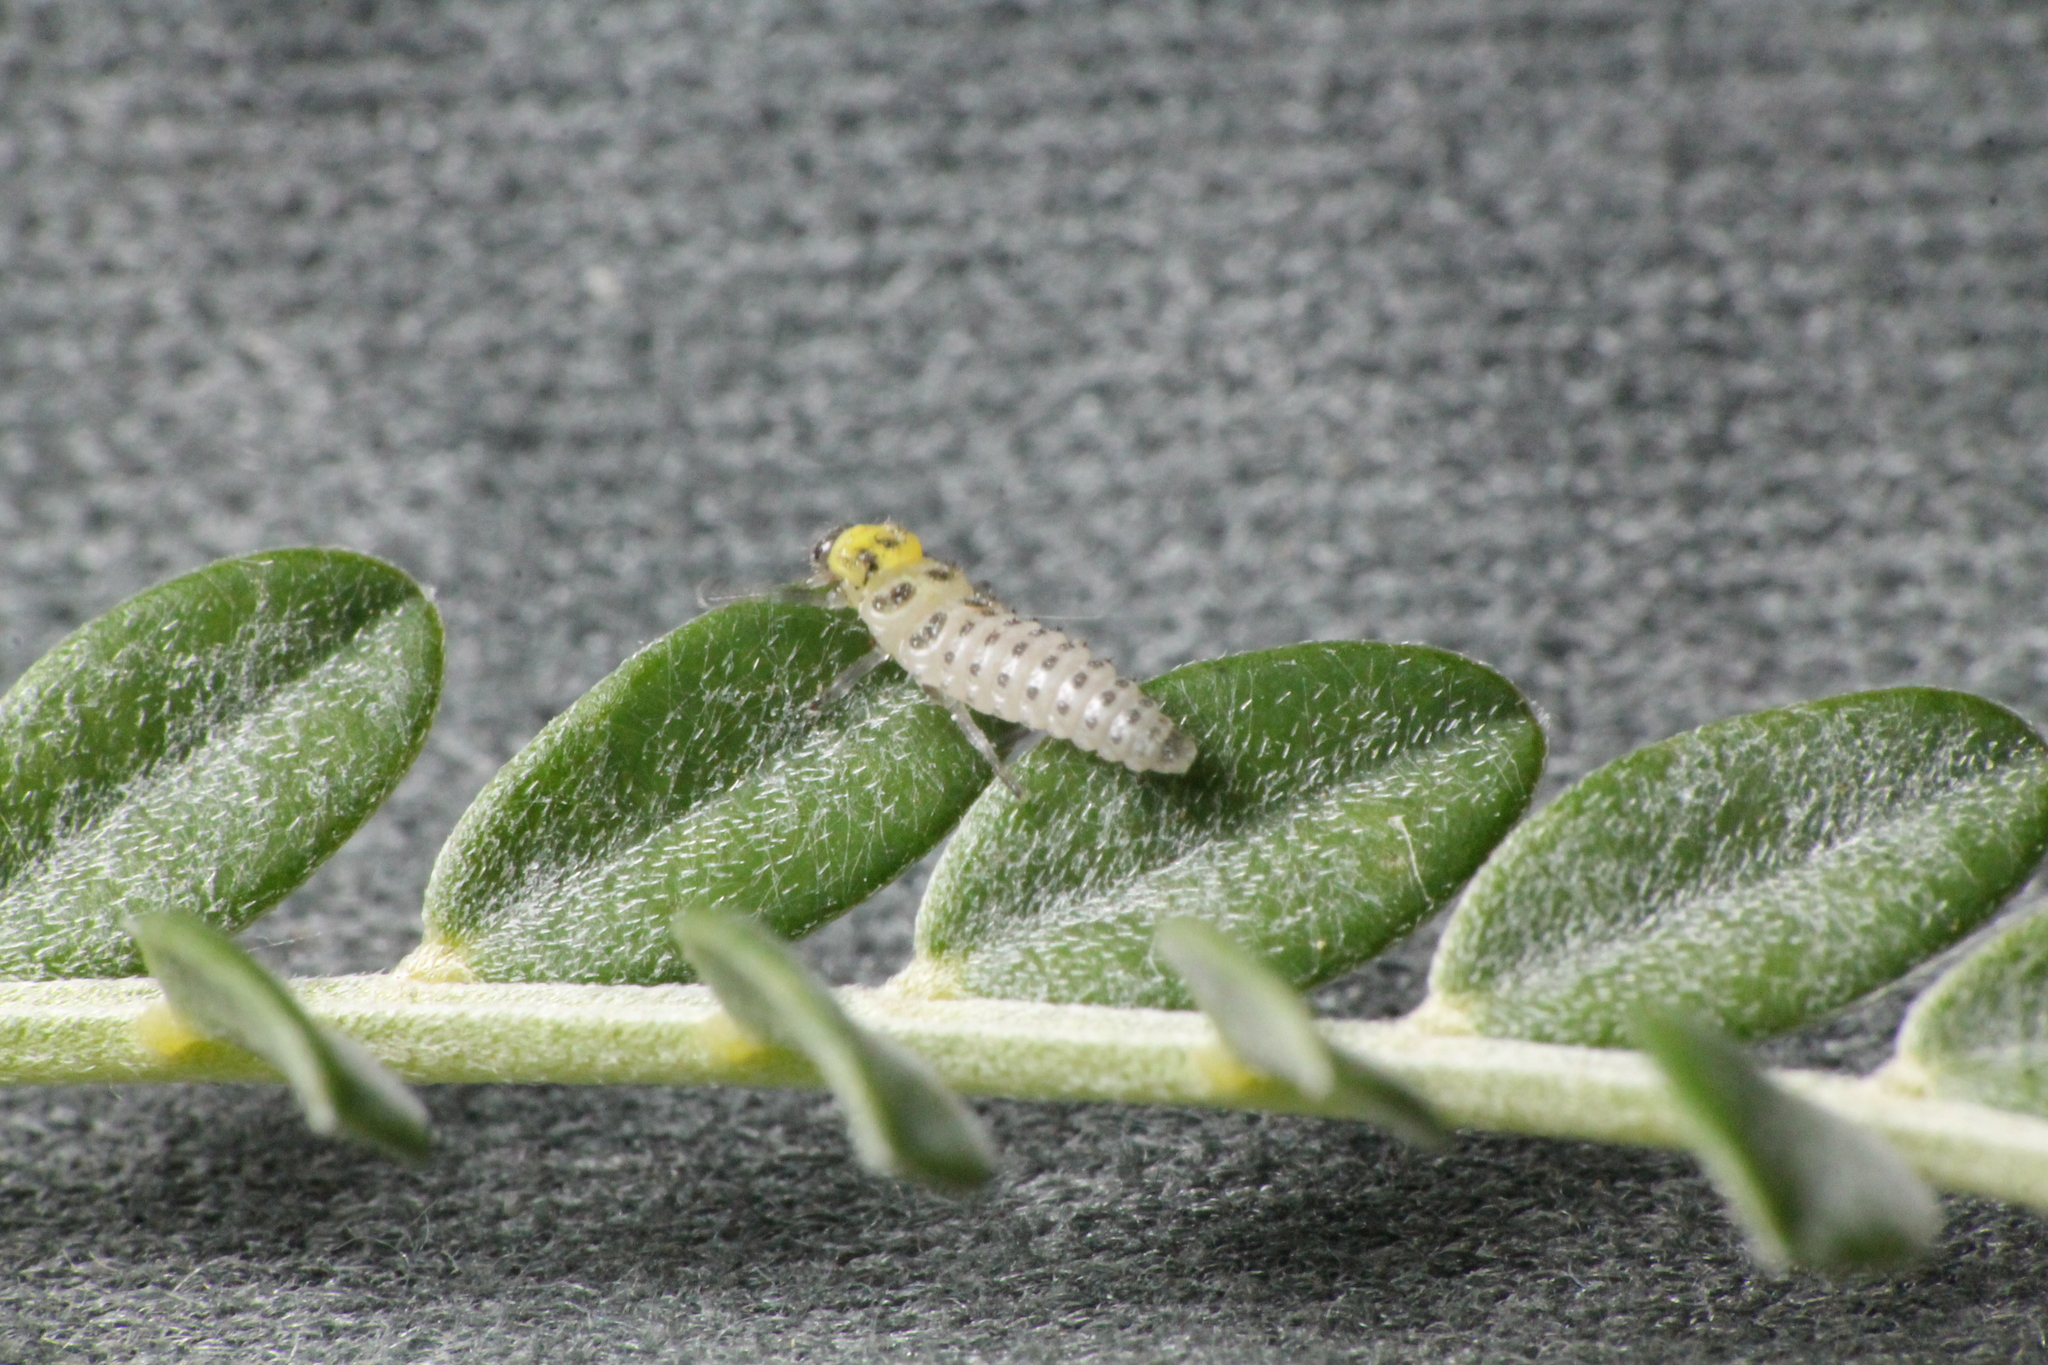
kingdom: Animalia
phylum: Arthropoda
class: Insecta
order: Coleoptera
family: Coccinellidae
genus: Illeis
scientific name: Illeis galbula
